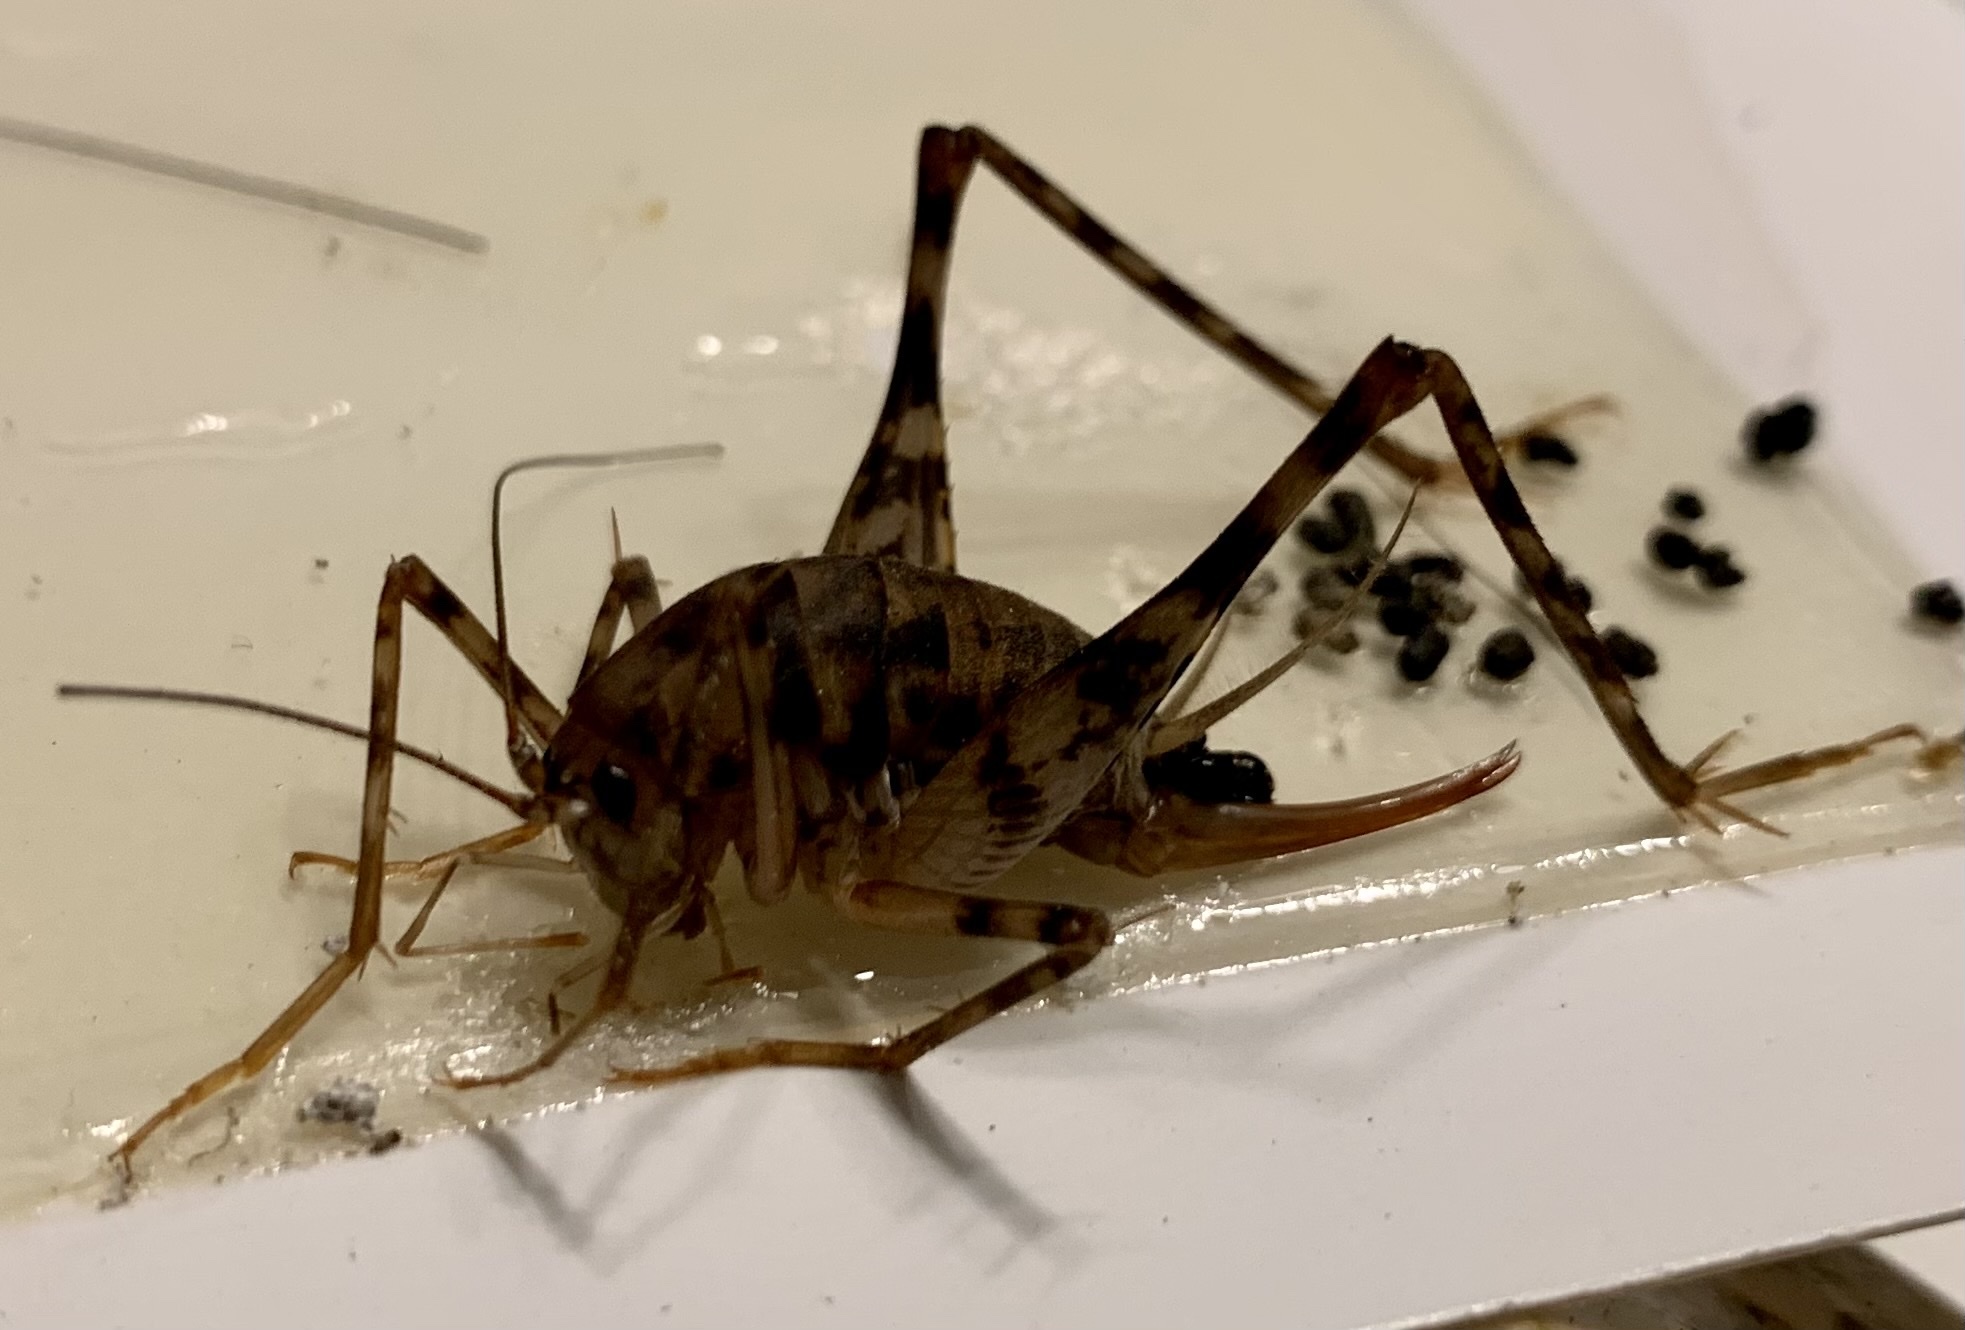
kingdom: Animalia
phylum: Arthropoda
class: Insecta
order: Orthoptera
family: Rhaphidophoridae
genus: Tachycines
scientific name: Tachycines asynamorus
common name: Greenhouse camel cricket
